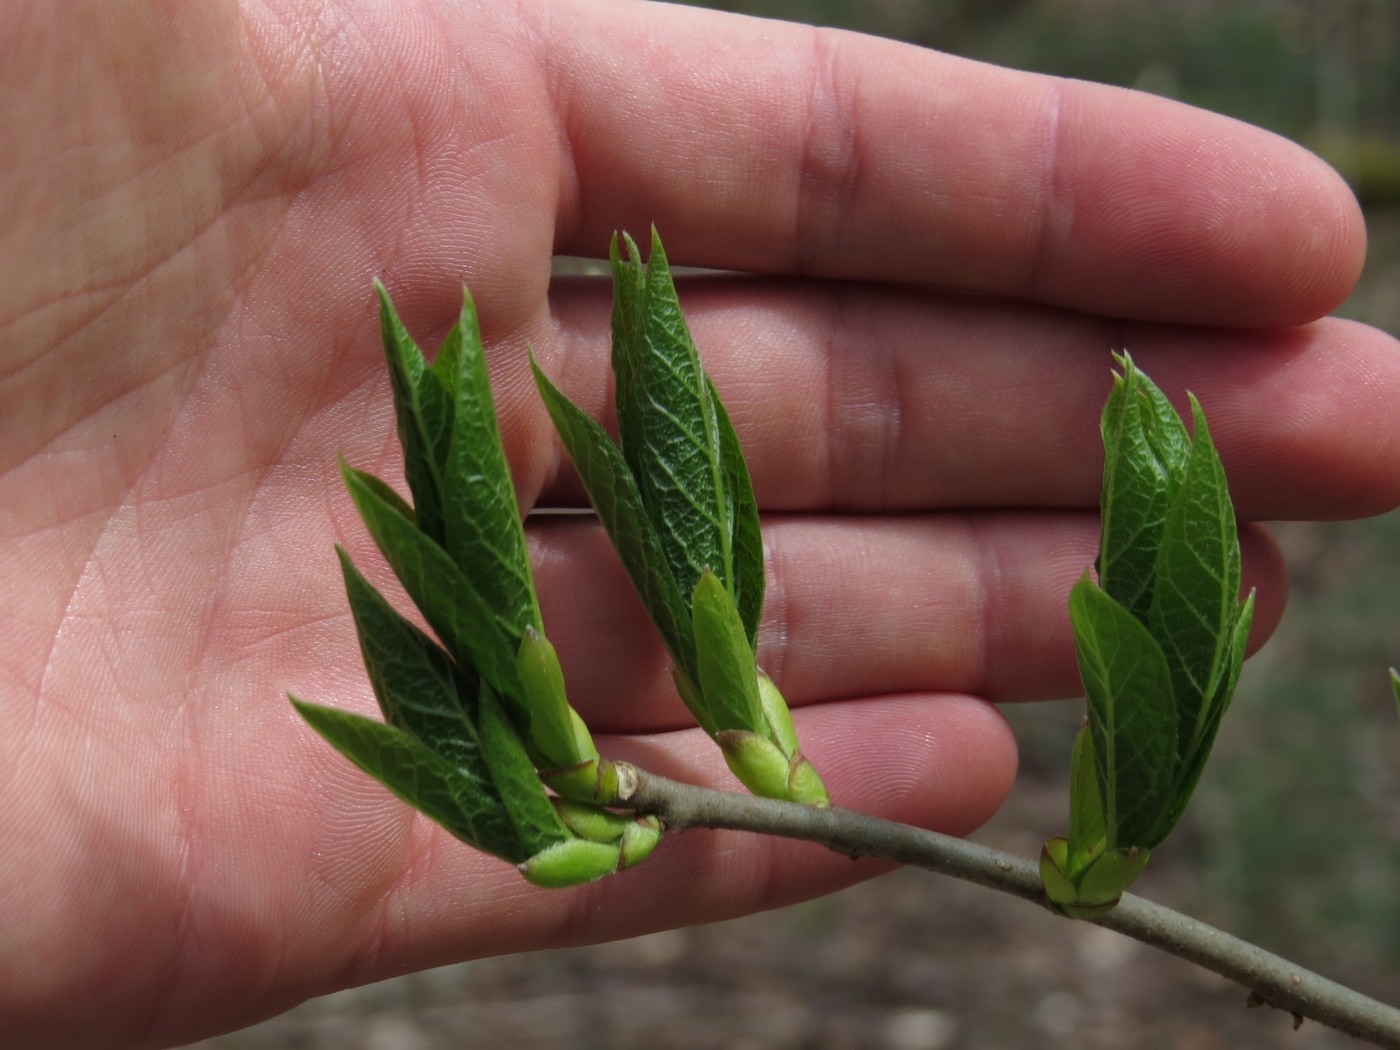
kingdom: Plantae
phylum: Tracheophyta
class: Magnoliopsida
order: Santalales
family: Cervantesiaceae
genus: Pyrularia
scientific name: Pyrularia pubera
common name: Oilnut
